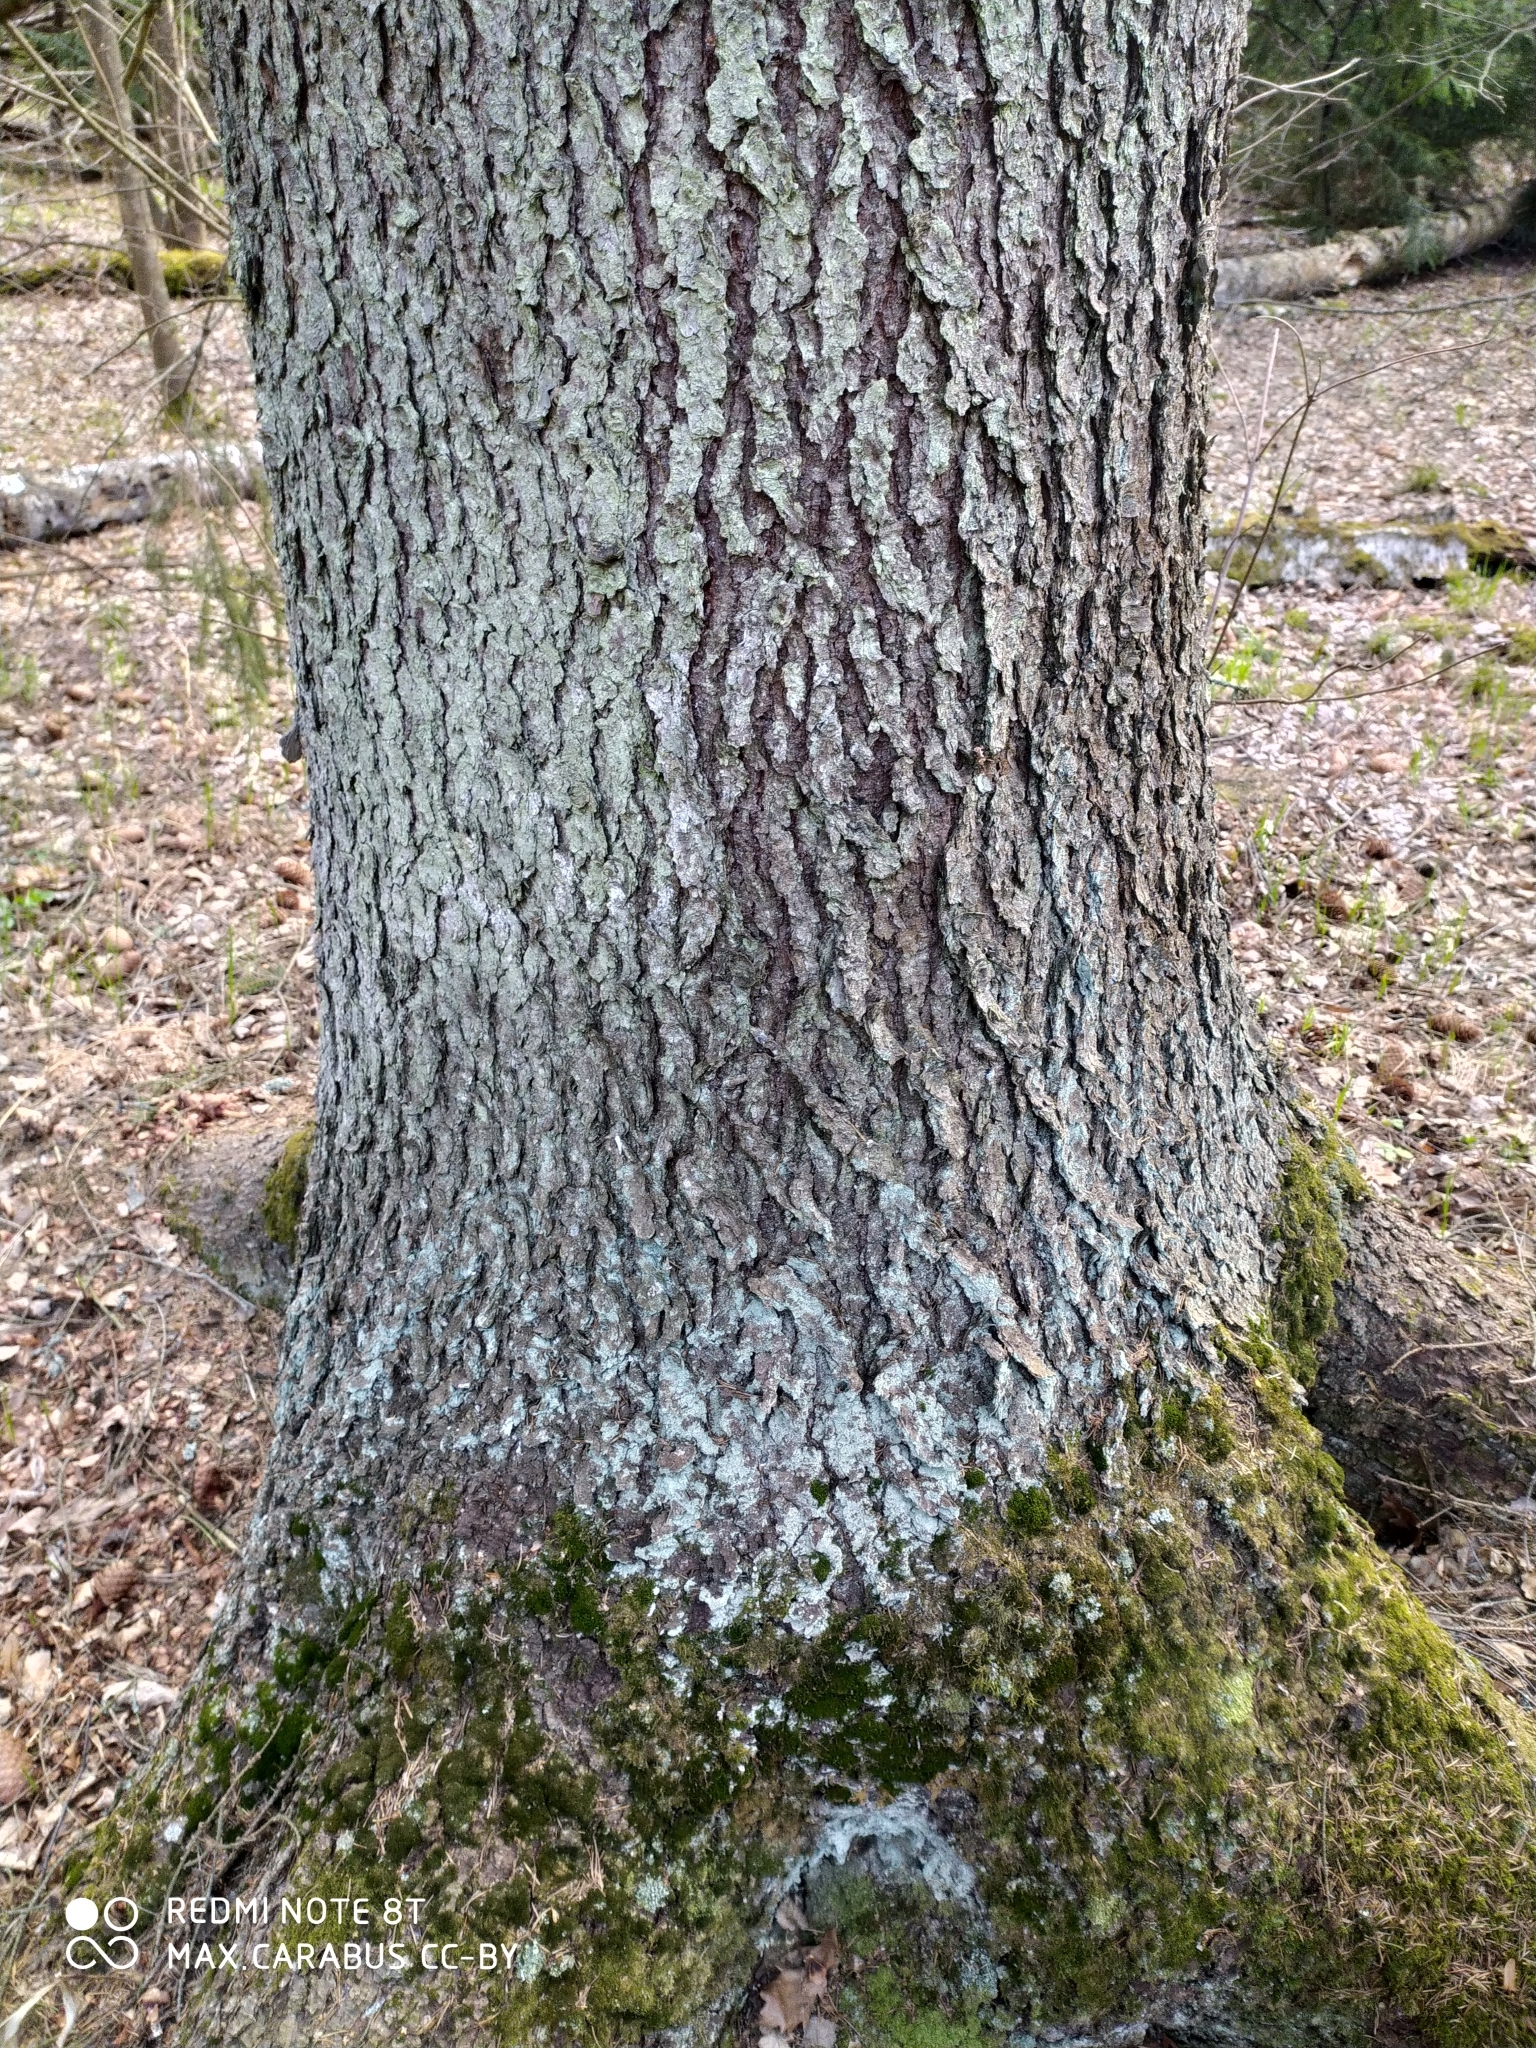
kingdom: Plantae
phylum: Tracheophyta
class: Pinopsida
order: Pinales
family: Pinaceae
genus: Picea
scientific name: Picea abies
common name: Norway spruce
